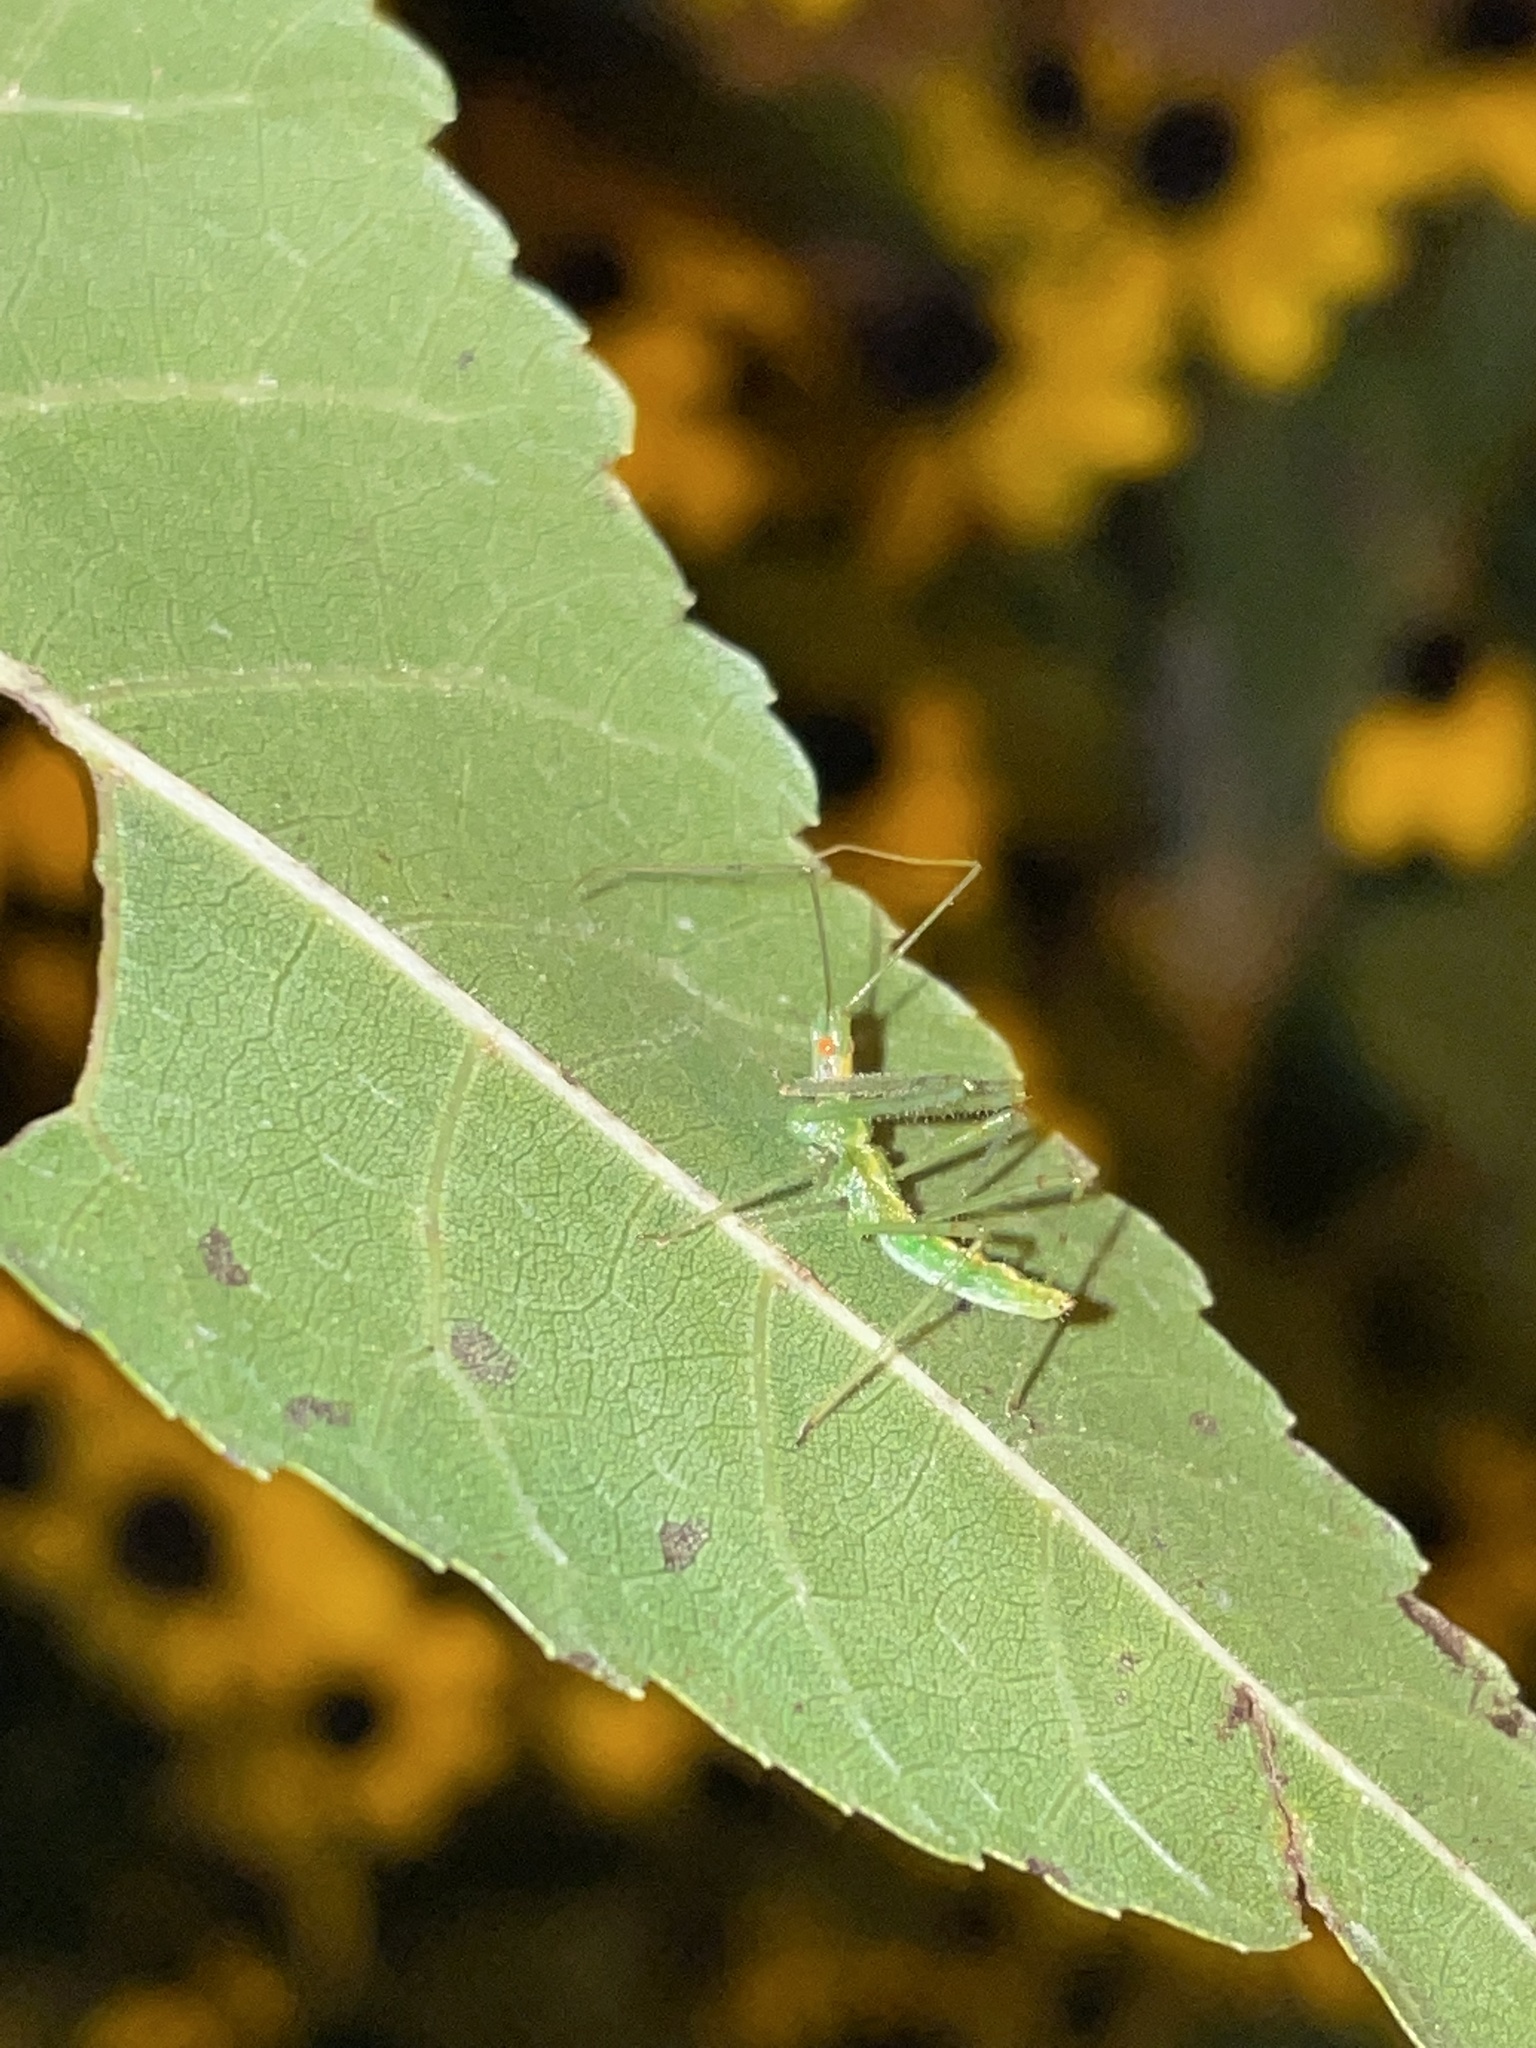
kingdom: Animalia
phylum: Arthropoda
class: Insecta
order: Hemiptera
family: Reduviidae
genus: Zelus
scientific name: Zelus luridus
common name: Pale green assassin bug
